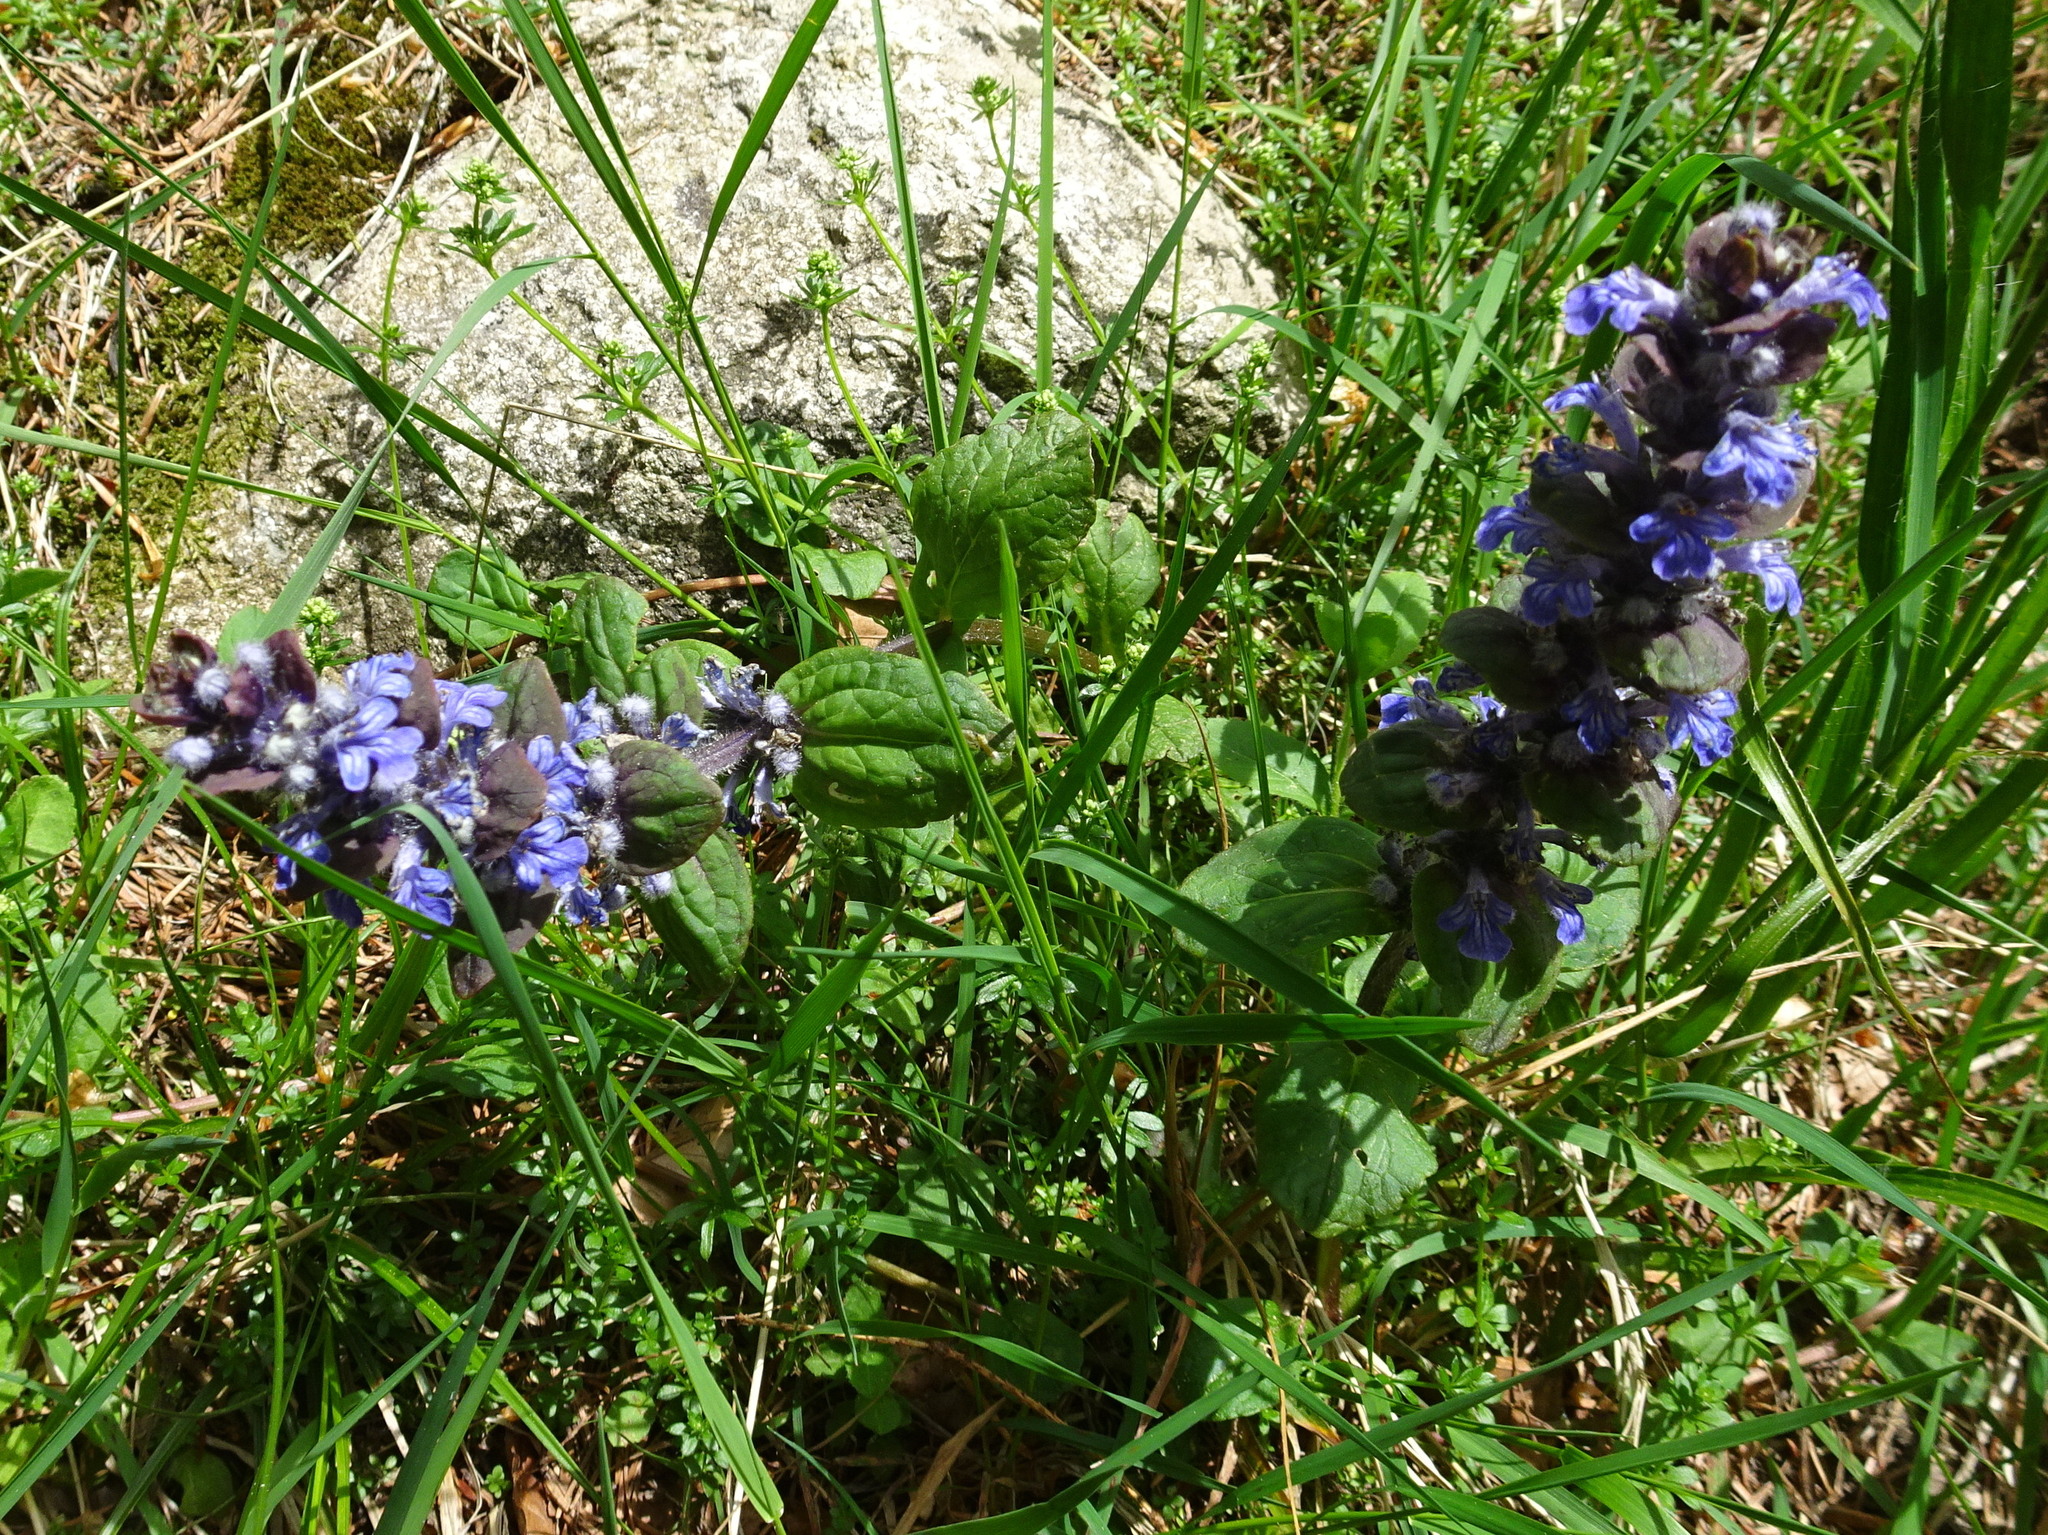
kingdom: Plantae
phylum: Tracheophyta
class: Magnoliopsida
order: Lamiales
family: Lamiaceae
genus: Ajuga
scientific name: Ajuga reptans
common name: Bugle
